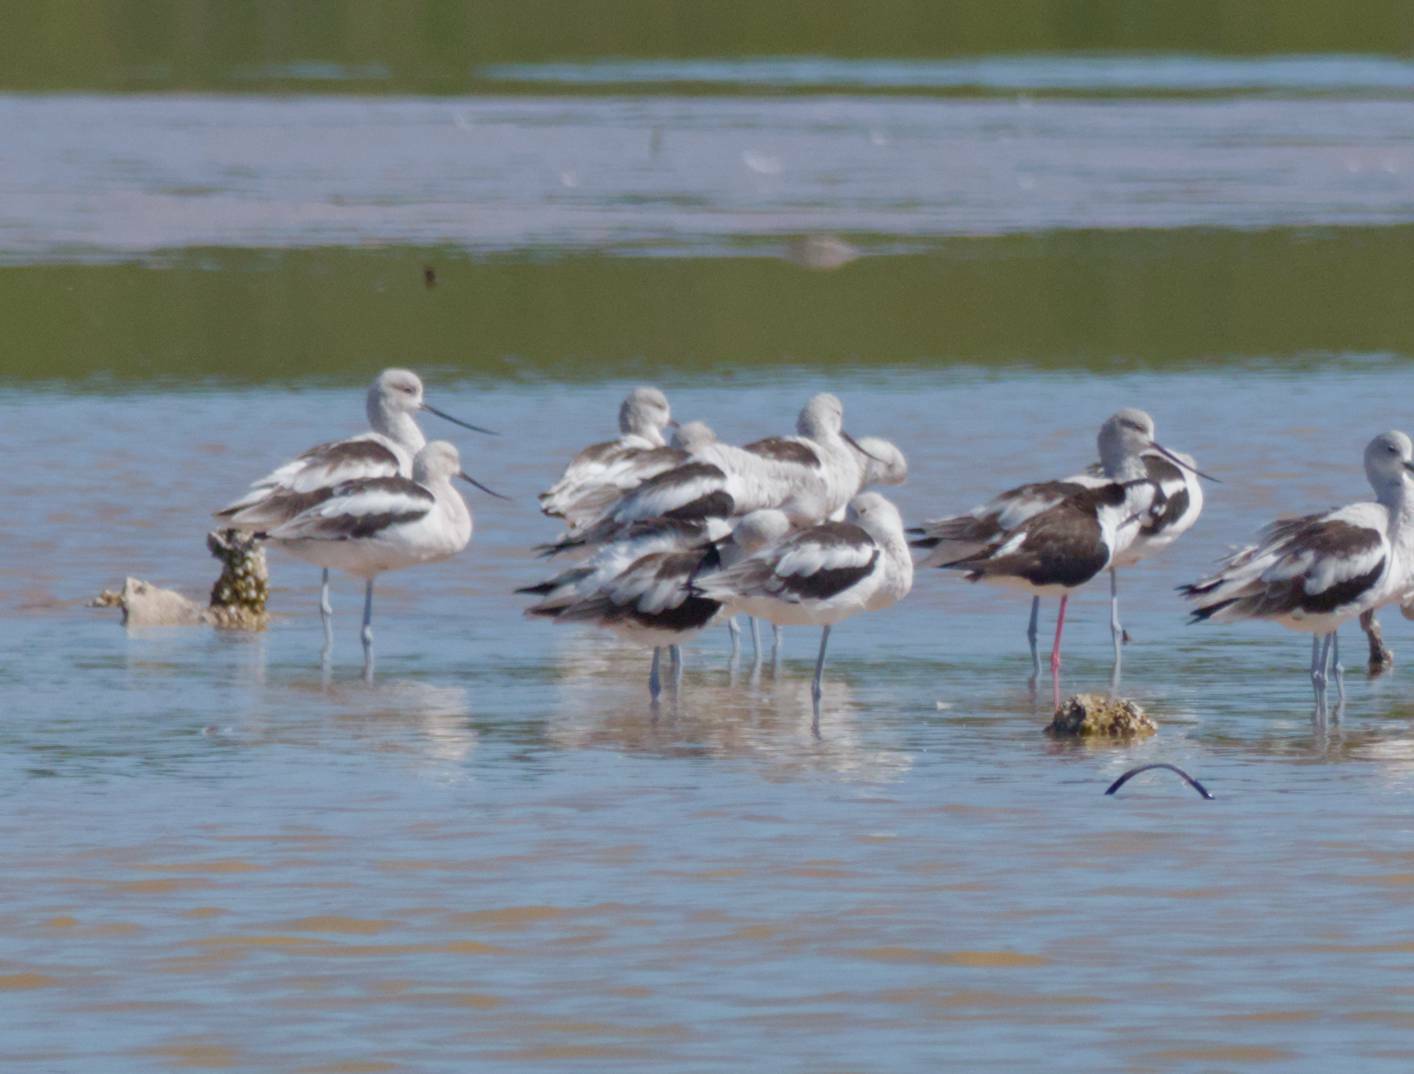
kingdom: Animalia
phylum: Chordata
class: Aves
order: Charadriiformes
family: Recurvirostridae
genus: Recurvirostra
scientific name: Recurvirostra americana
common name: American avocet
